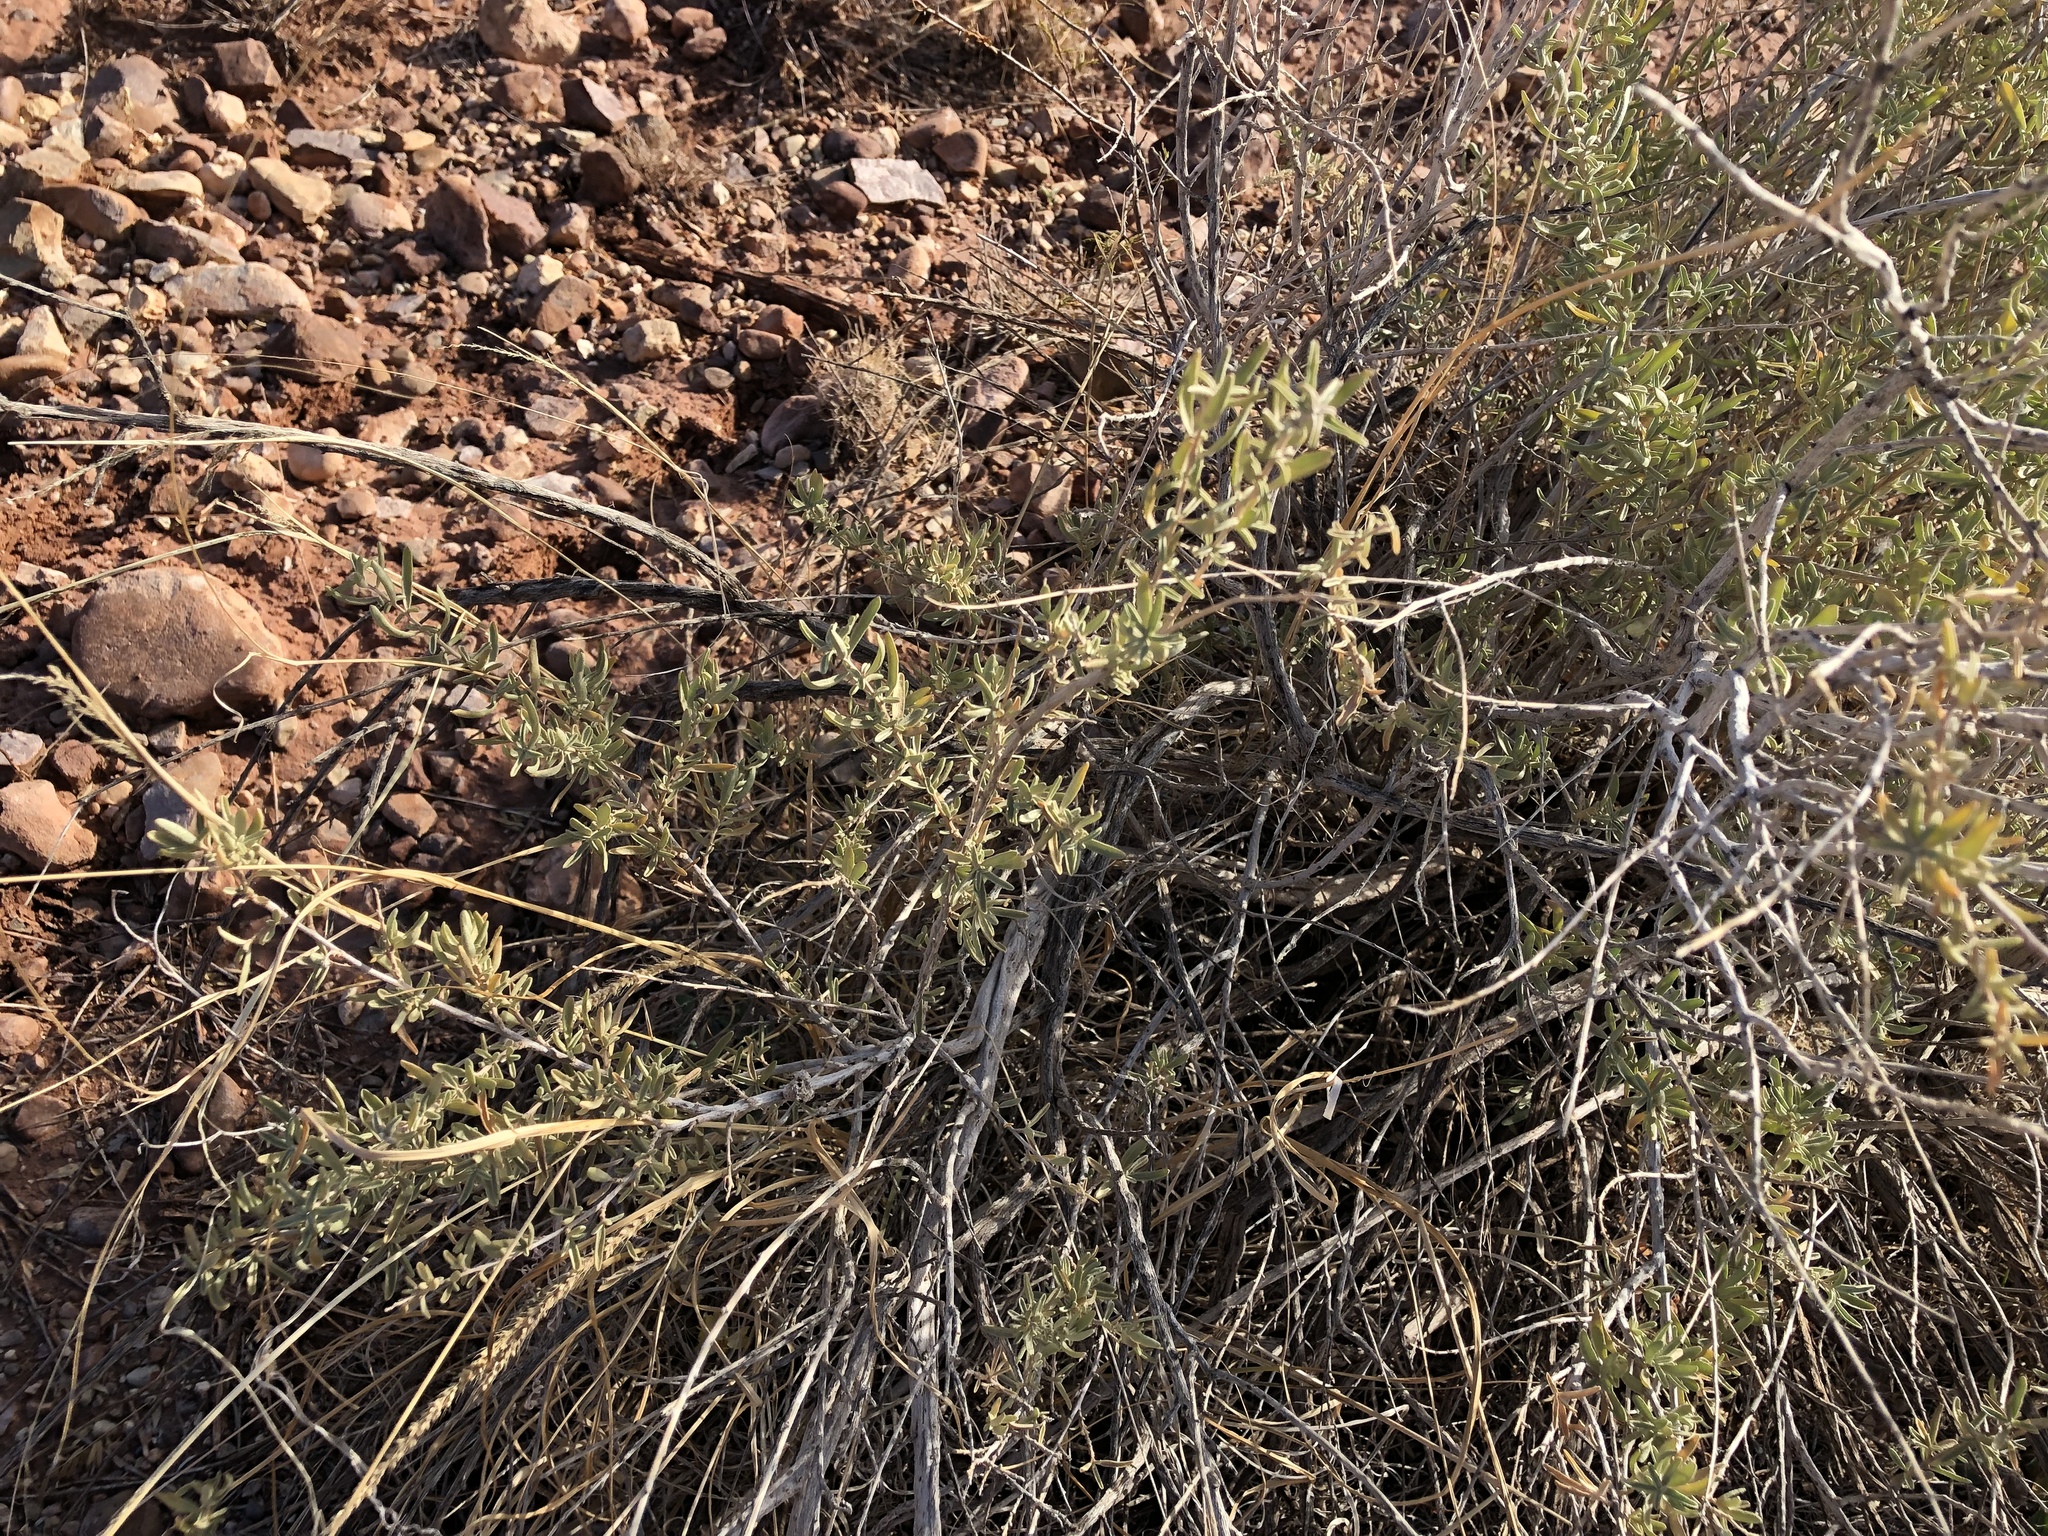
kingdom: Plantae
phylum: Tracheophyta
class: Magnoliopsida
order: Caryophyllales
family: Amaranthaceae
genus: Atriplex
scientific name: Atriplex canescens
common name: Four-wing saltbush
